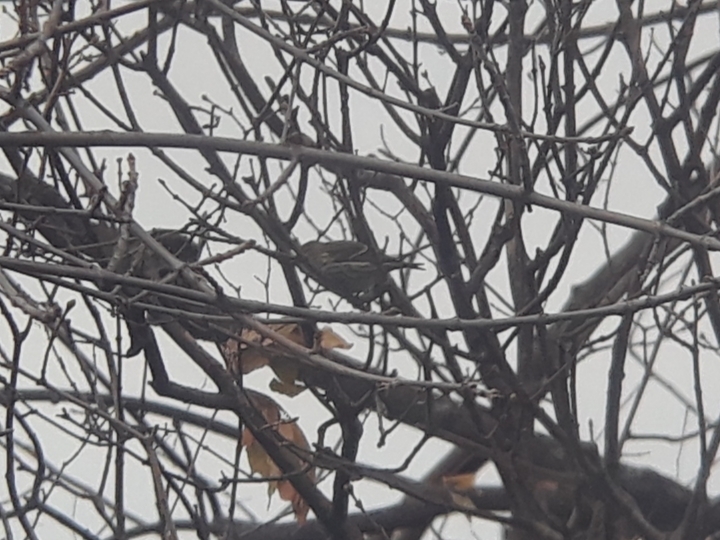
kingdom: Animalia
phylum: Chordata
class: Aves
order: Passeriformes
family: Fringillidae
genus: Spinus
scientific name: Spinus pinus
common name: Pine siskin
